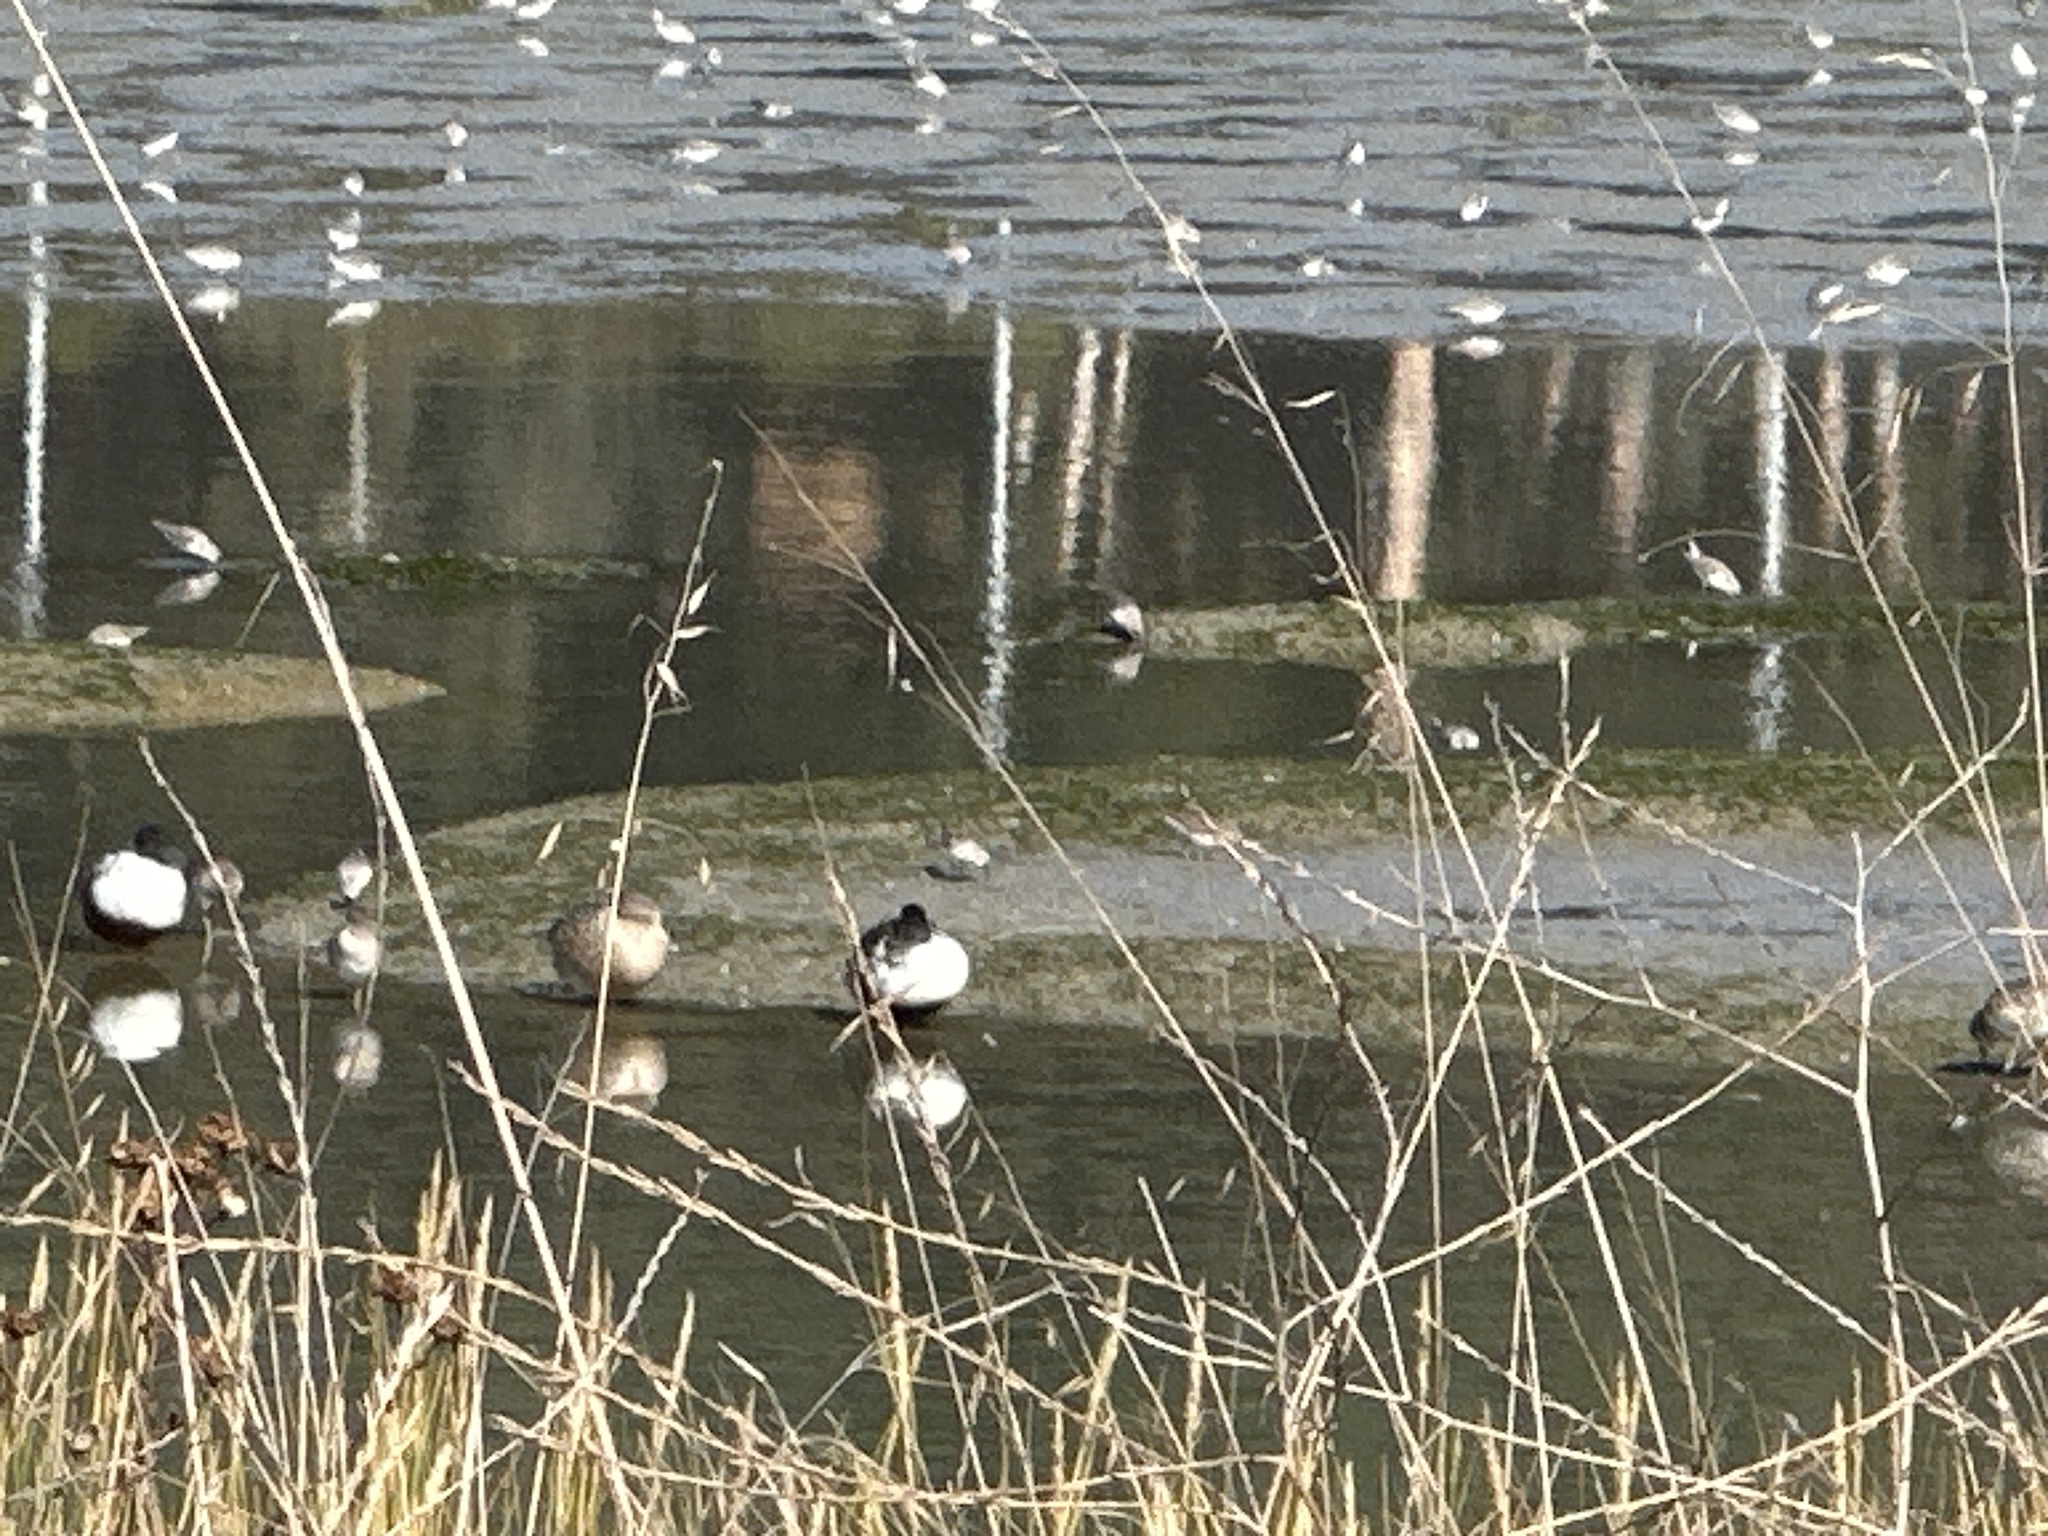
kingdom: Animalia
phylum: Chordata
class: Aves
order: Anseriformes
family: Anatidae
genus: Spatula
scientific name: Spatula clypeata
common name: Northern shoveler
